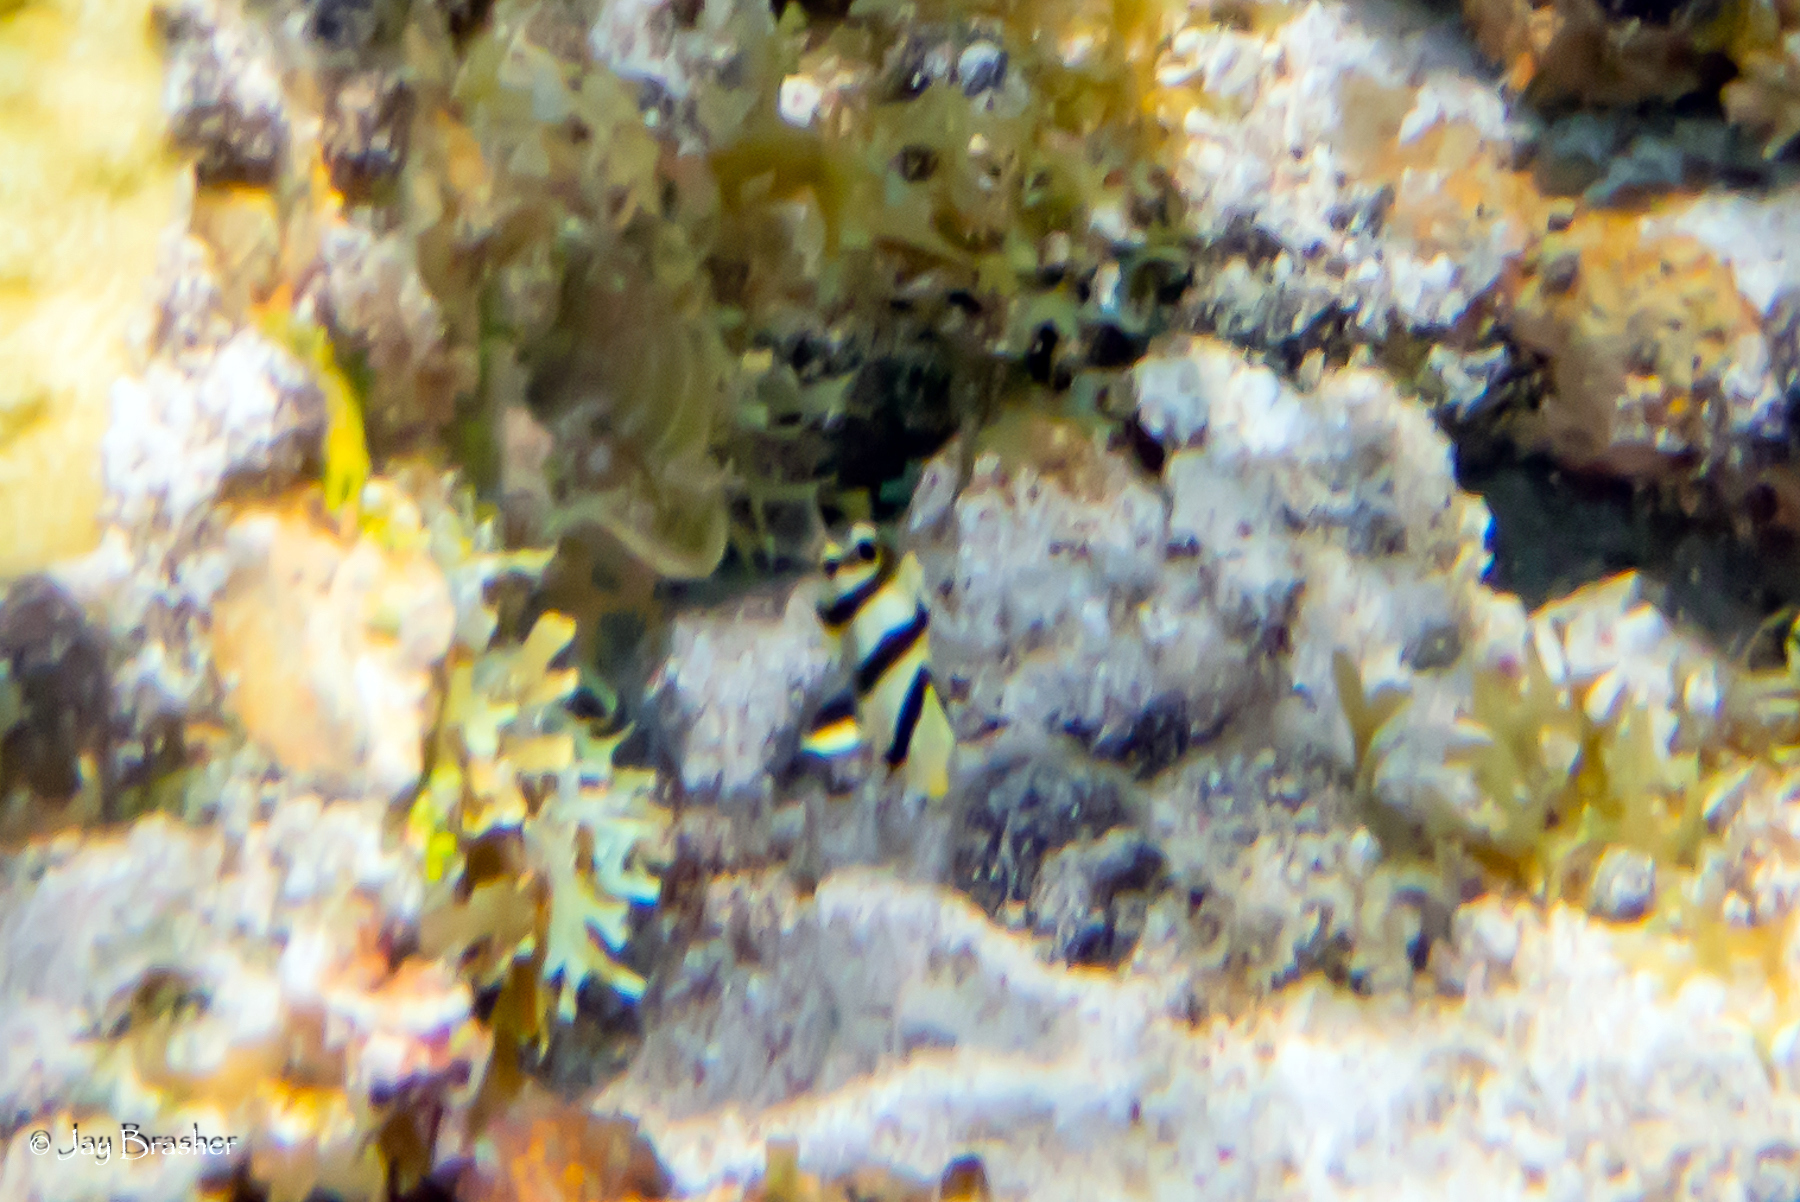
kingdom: Animalia
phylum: Chordata
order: Perciformes
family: Chaetodontidae
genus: Chaetodon
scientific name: Chaetodon striatus
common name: Banded butterflyfish
